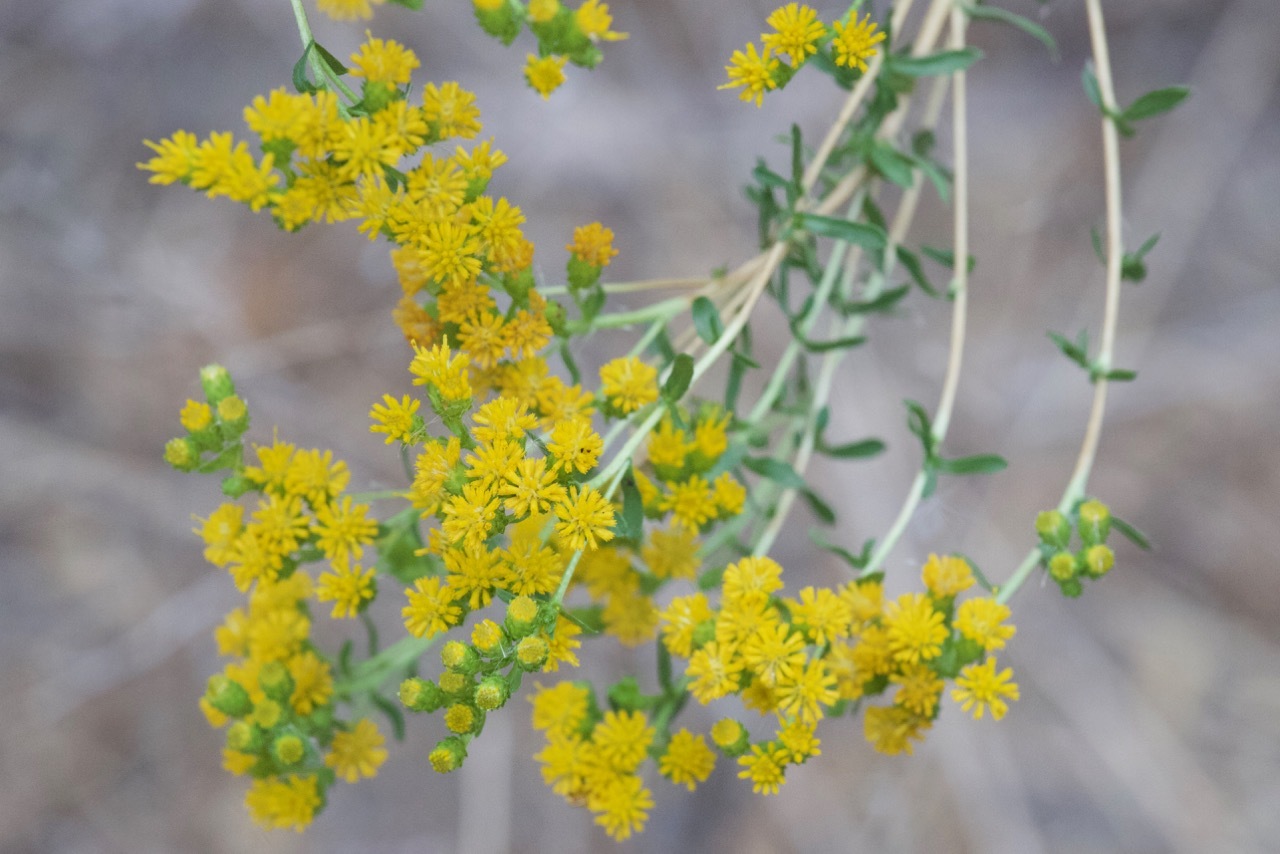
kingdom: Plantae
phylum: Tracheophyta
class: Magnoliopsida
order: Asterales
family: Asteraceae
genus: Isocoma
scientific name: Isocoma menziesii
